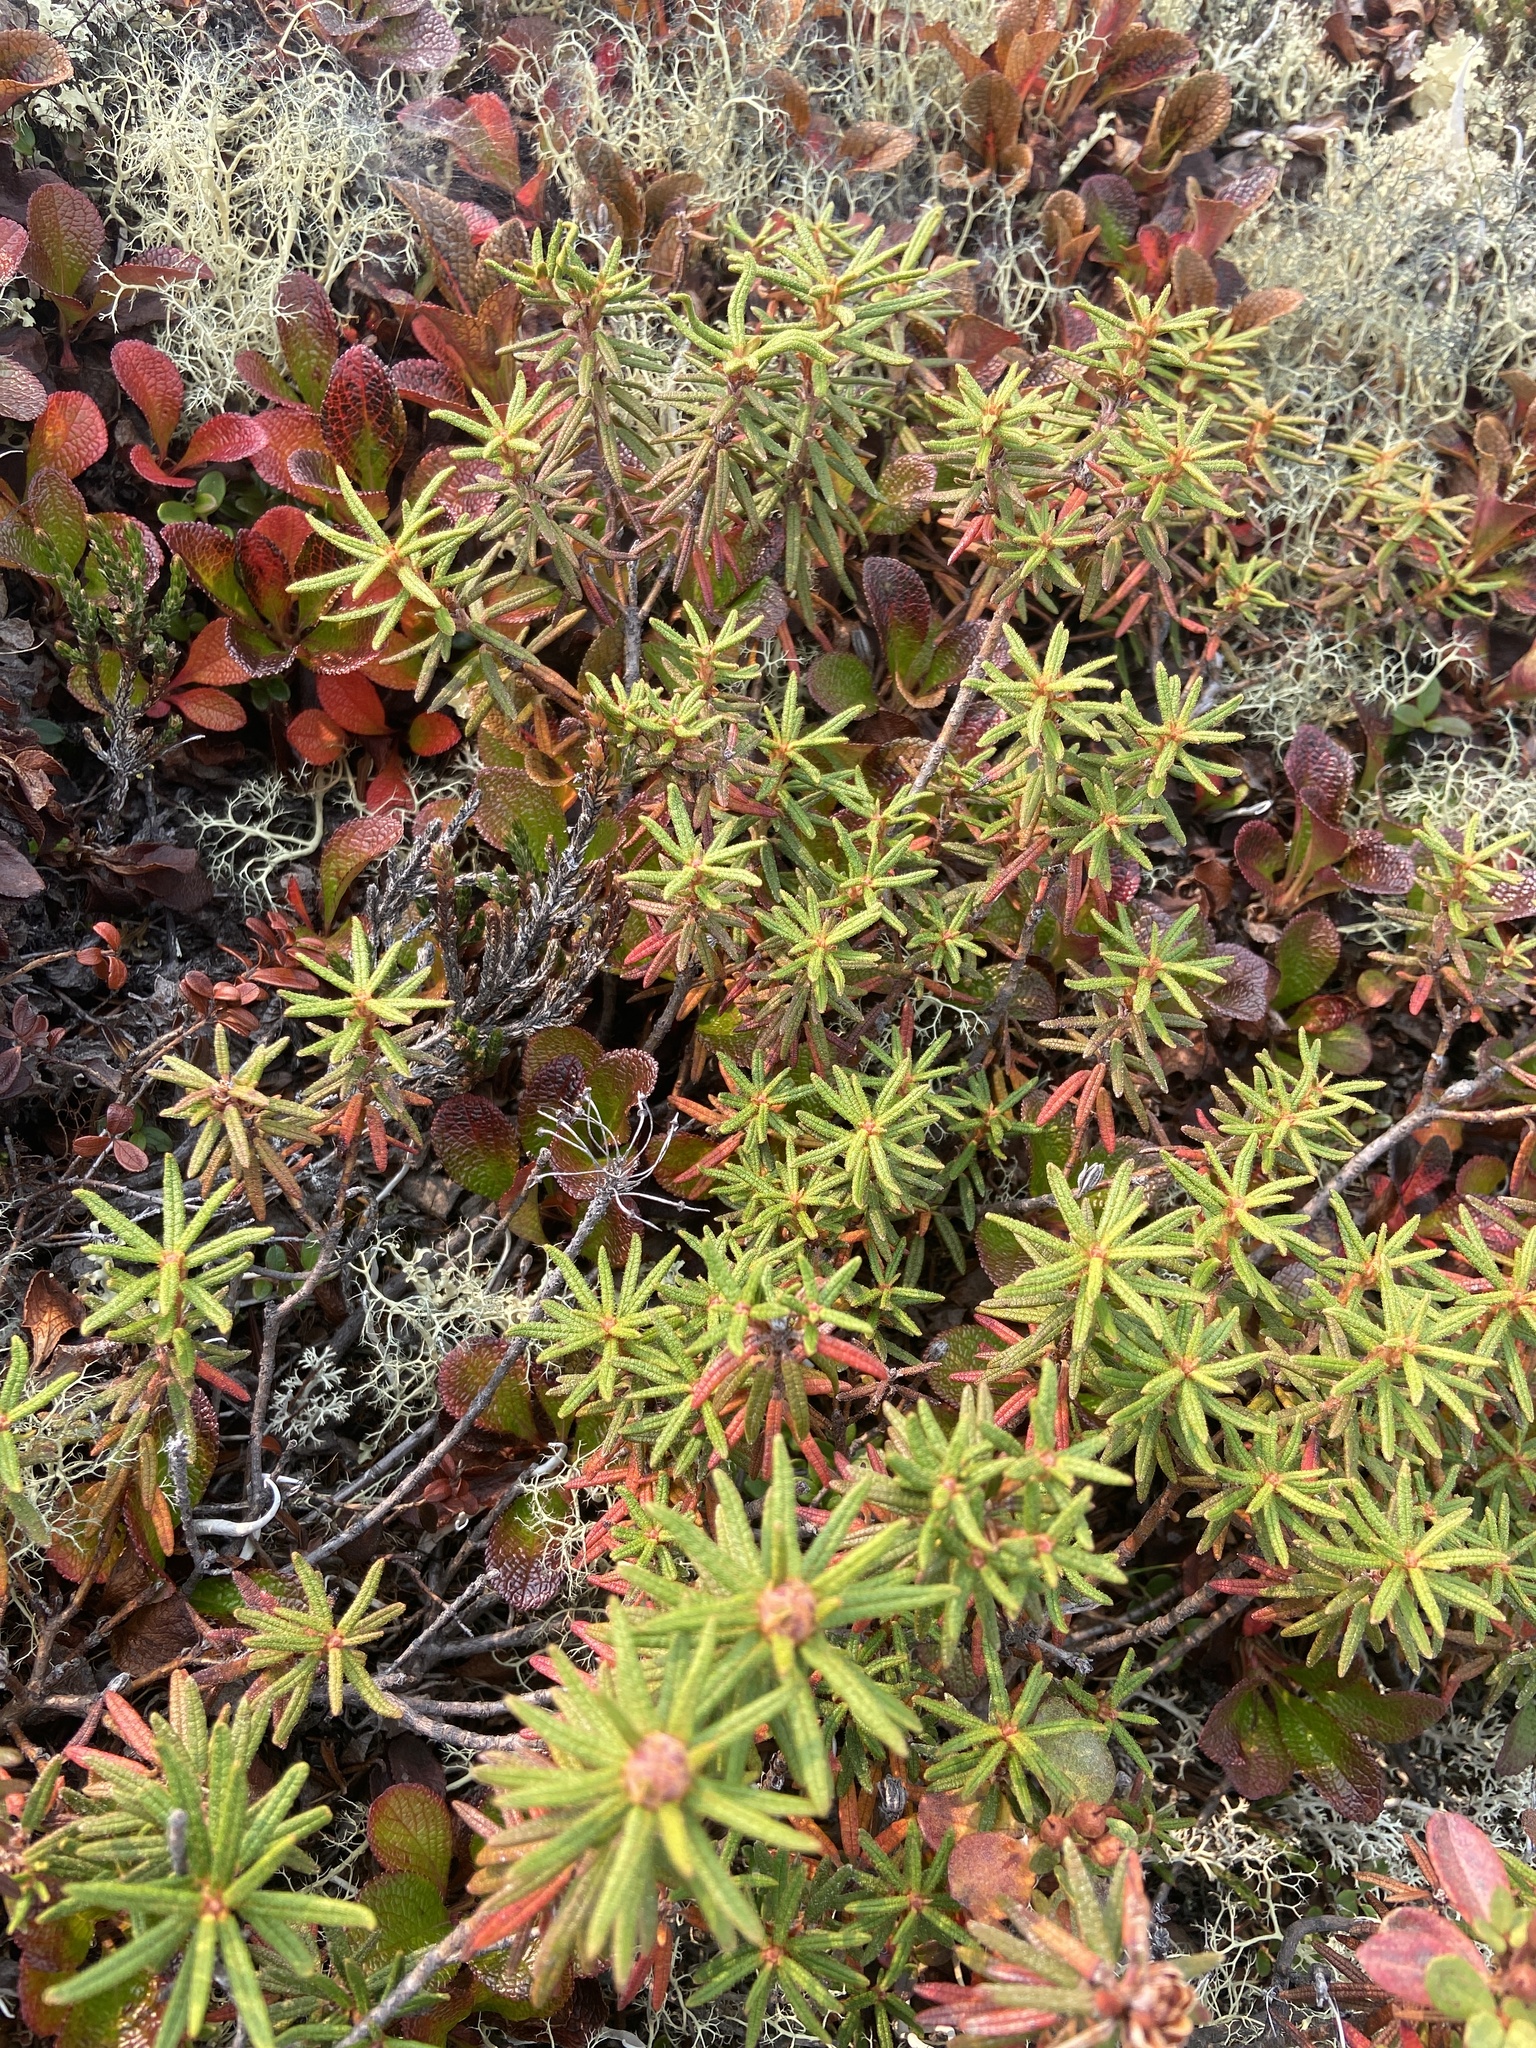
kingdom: Plantae
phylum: Tracheophyta
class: Magnoliopsida
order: Ericales
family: Ericaceae
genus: Rhododendron
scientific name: Rhododendron tomentosum
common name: Marsh labrador tea
